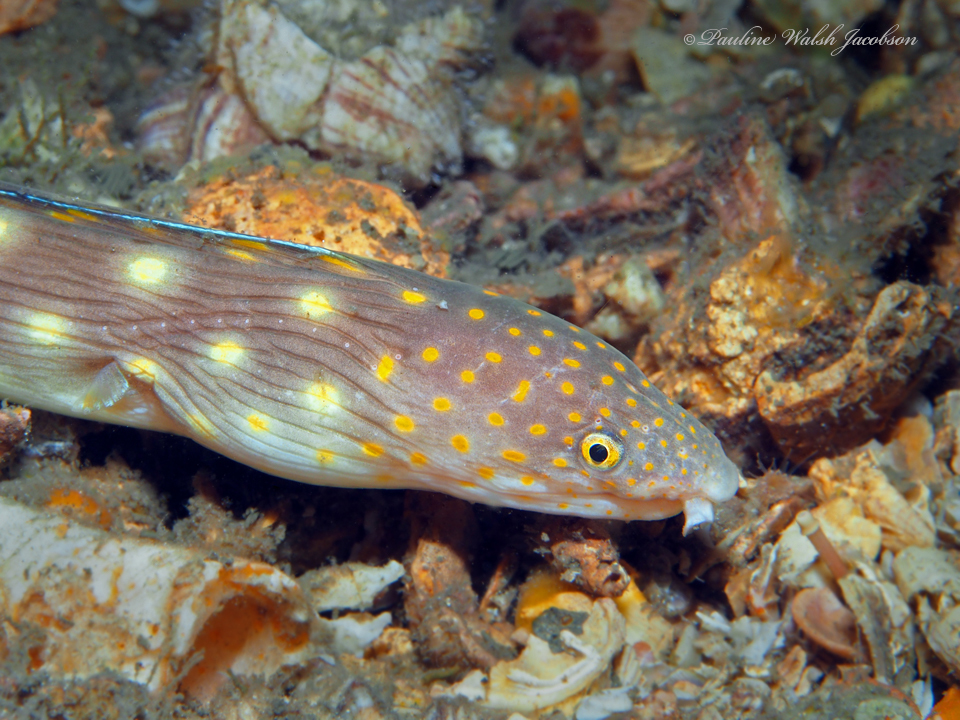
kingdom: Animalia
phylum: Chordata
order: Anguilliformes
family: Ophichthidae
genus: Myrichthys
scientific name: Myrichthys breviceps
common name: Sharptail eel
